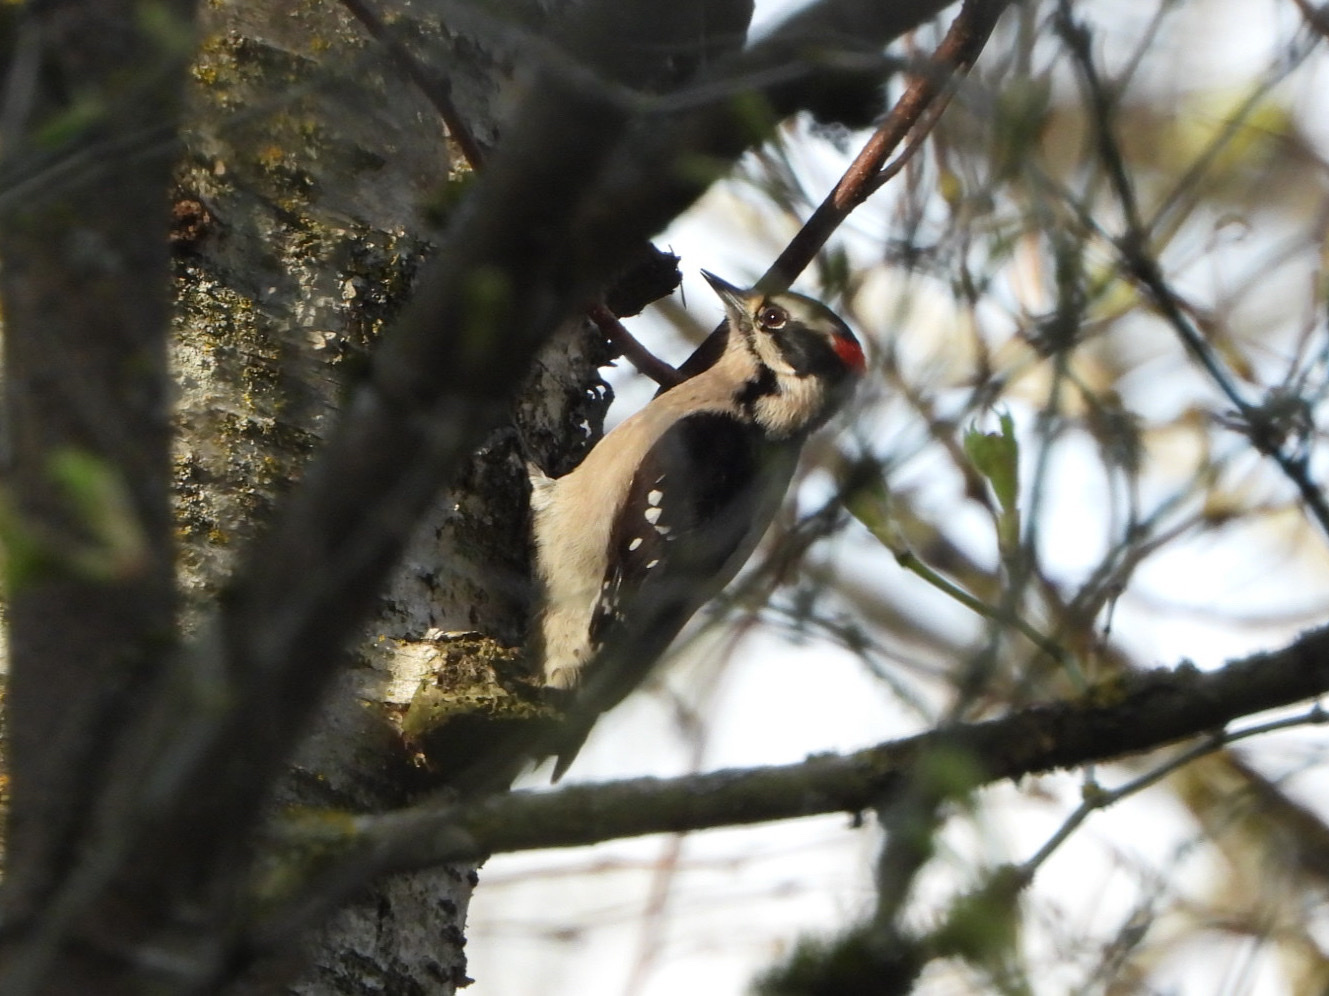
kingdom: Animalia
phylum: Chordata
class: Aves
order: Piciformes
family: Picidae
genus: Dryobates
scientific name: Dryobates pubescens
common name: Downy woodpecker
